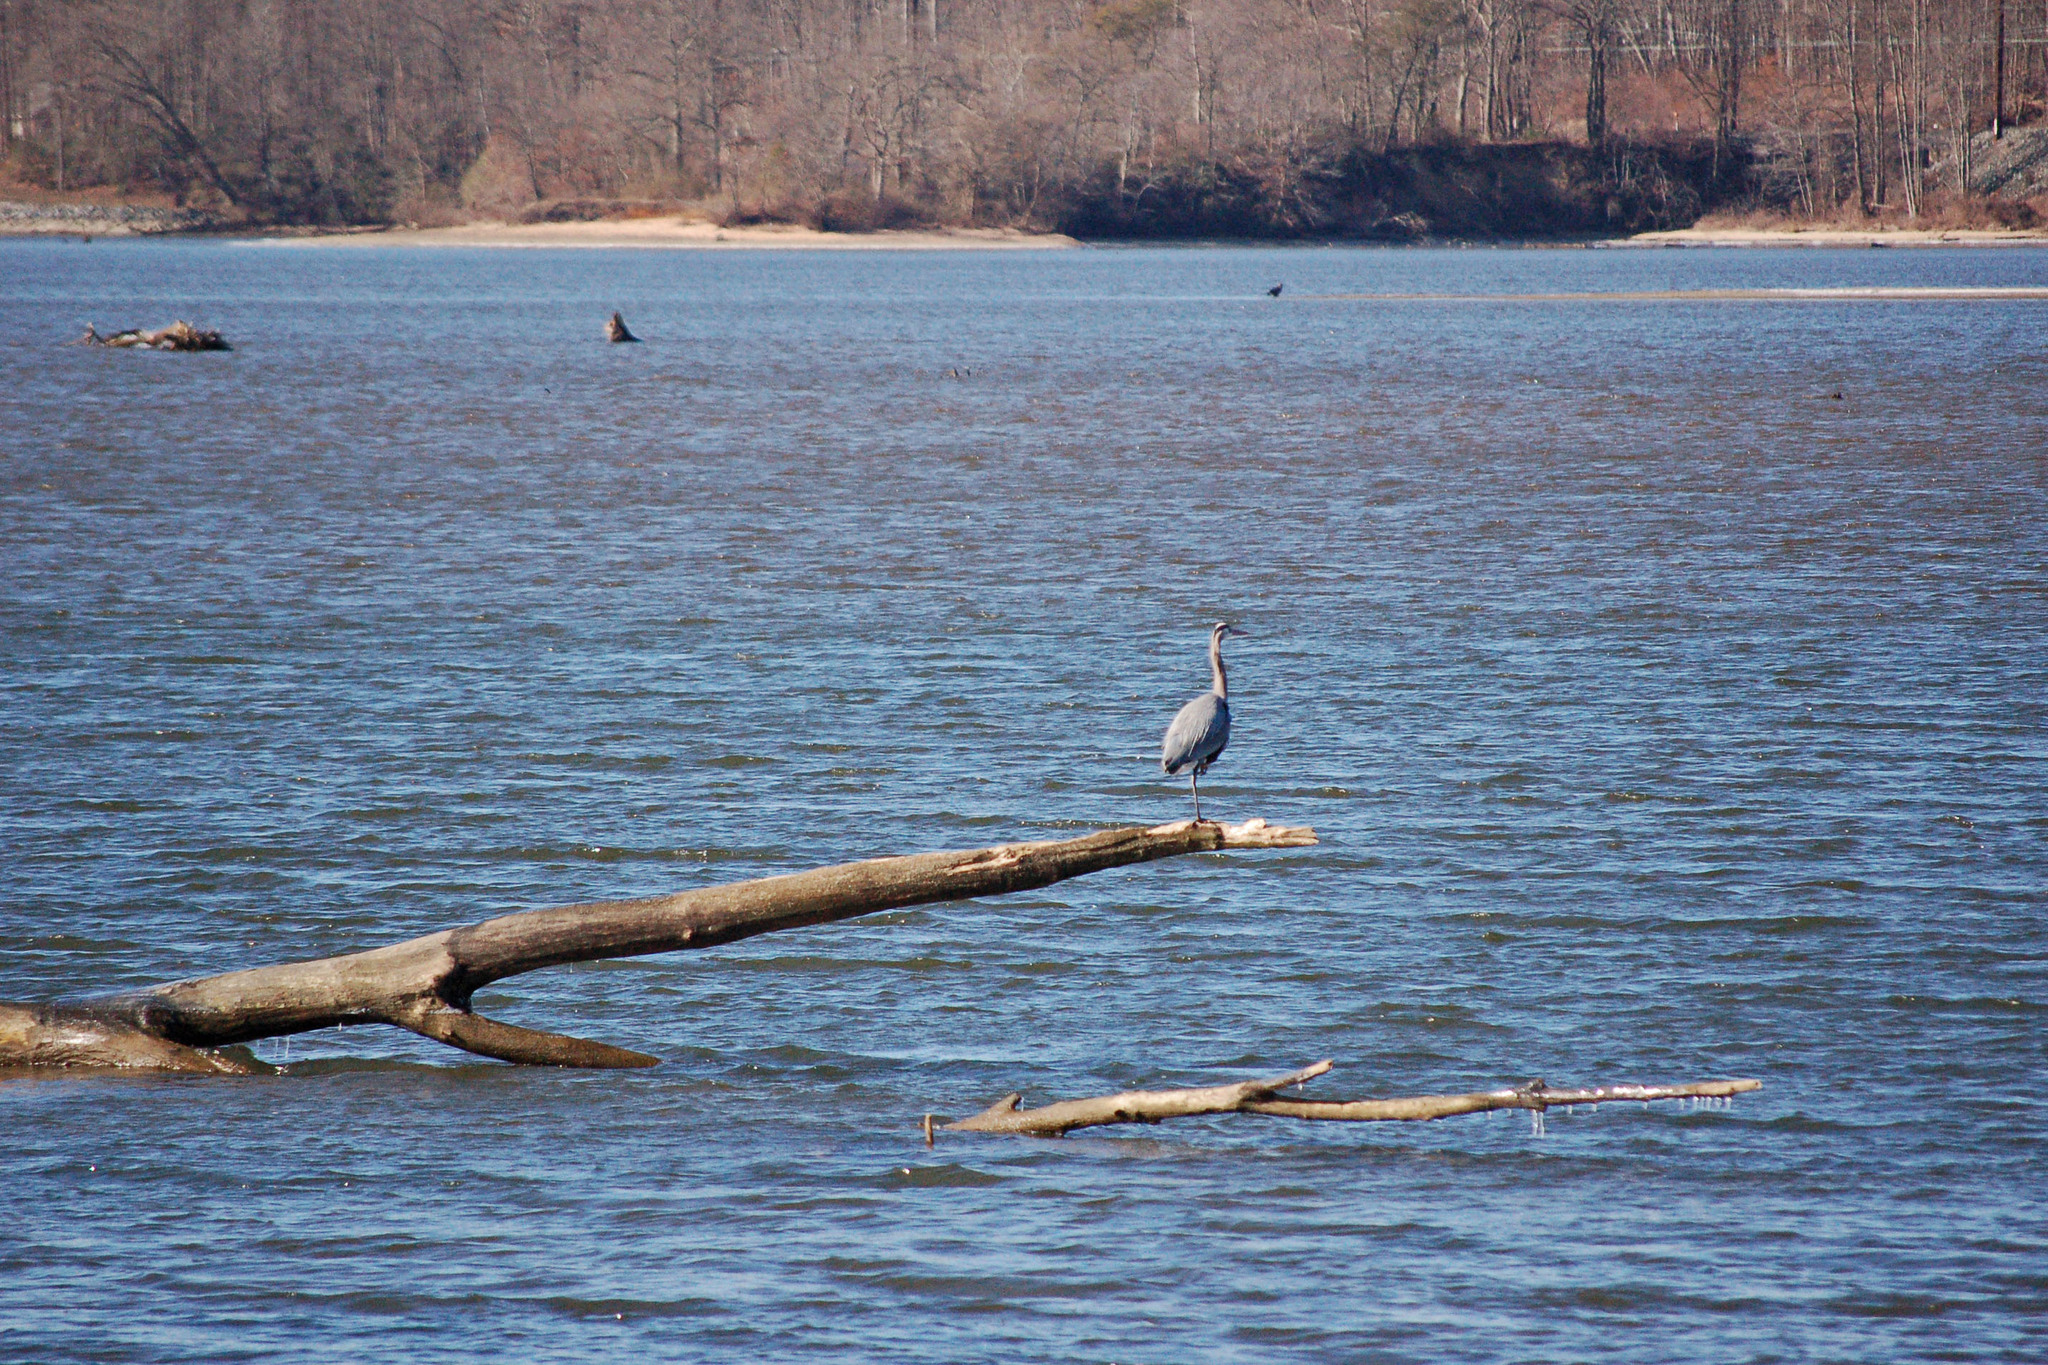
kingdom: Animalia
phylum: Chordata
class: Aves
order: Pelecaniformes
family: Ardeidae
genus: Ardea
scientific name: Ardea herodias
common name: Great blue heron
